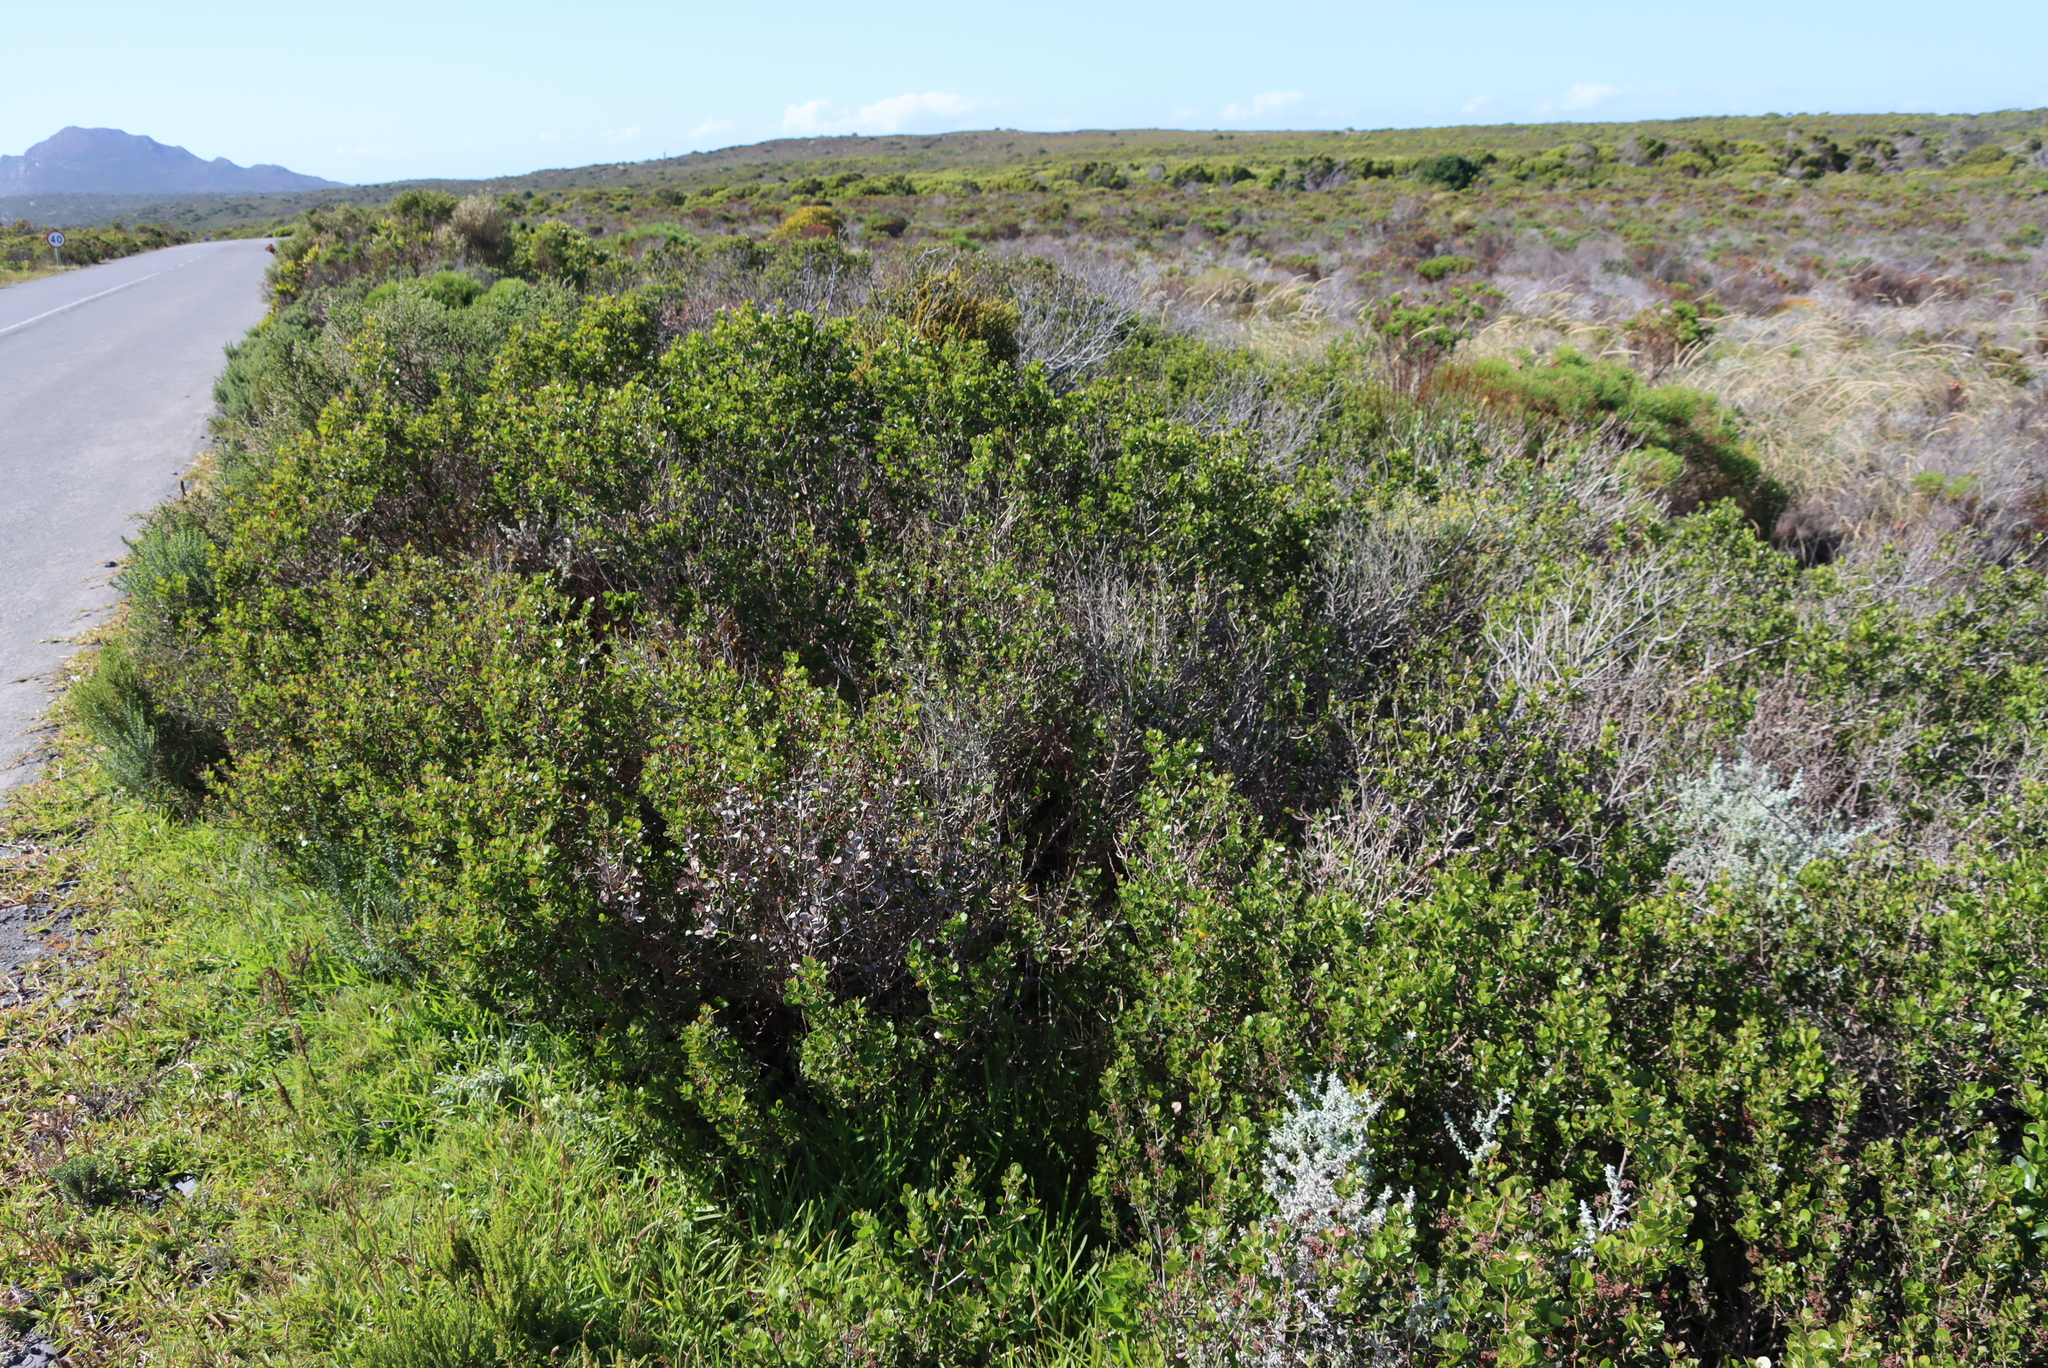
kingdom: Plantae
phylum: Tracheophyta
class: Magnoliopsida
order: Sapindales
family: Anacardiaceae
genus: Searsia
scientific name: Searsia lucida
